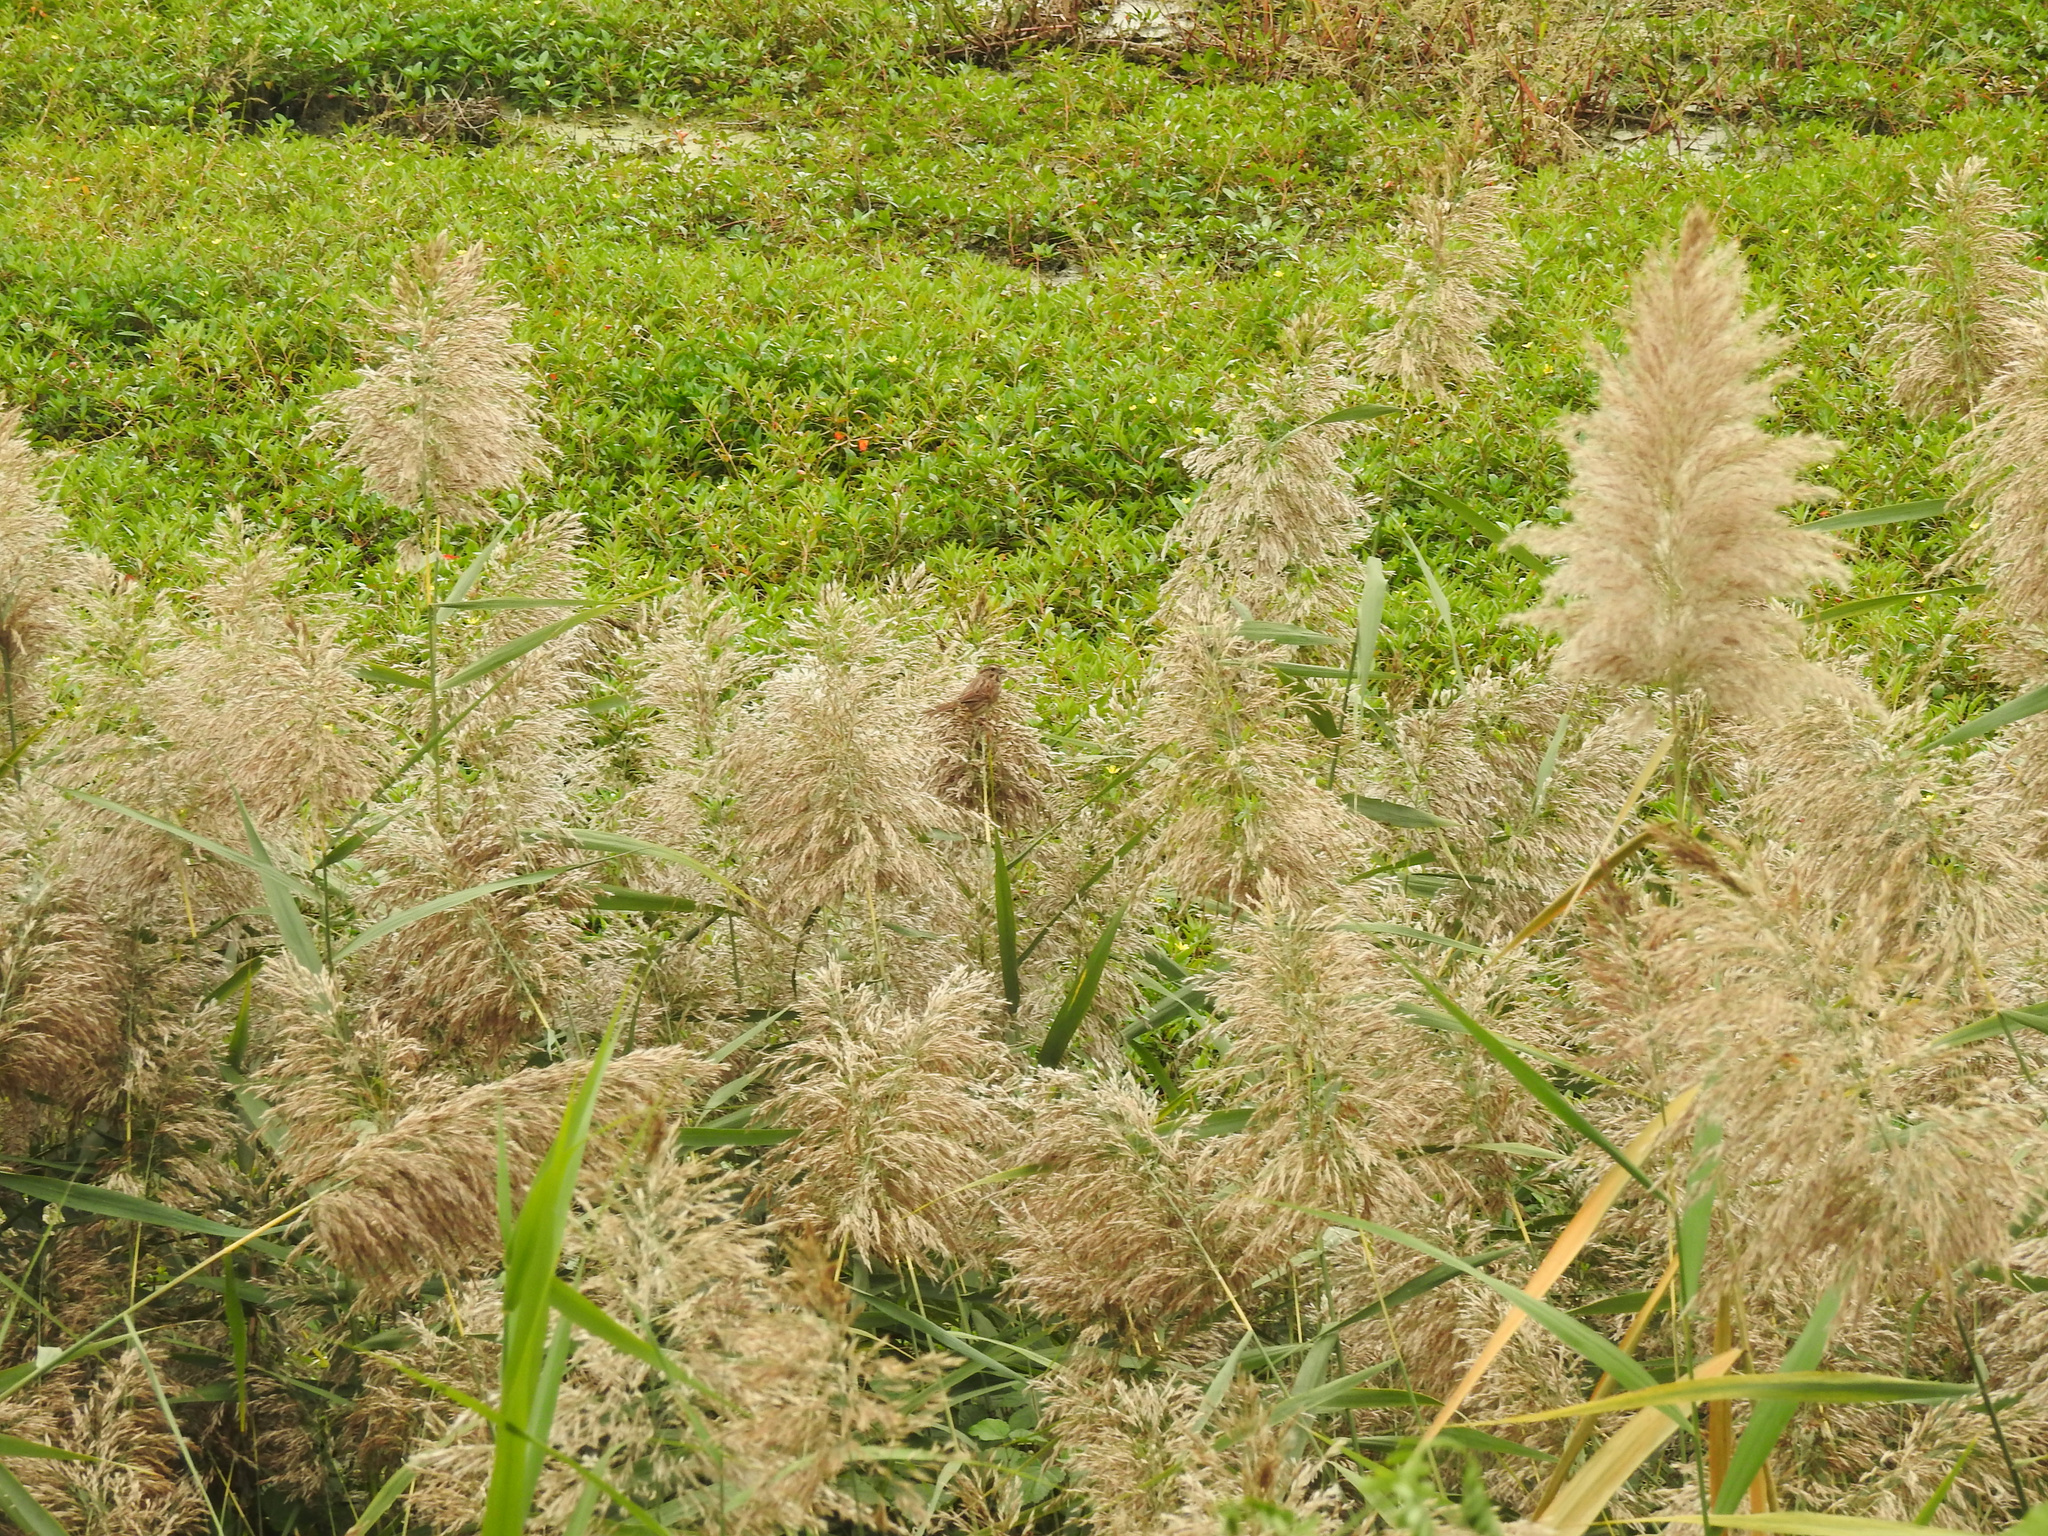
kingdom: Plantae
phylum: Tracheophyta
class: Liliopsida
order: Poales
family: Poaceae
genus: Phragmites
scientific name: Phragmites australis
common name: Common reed
